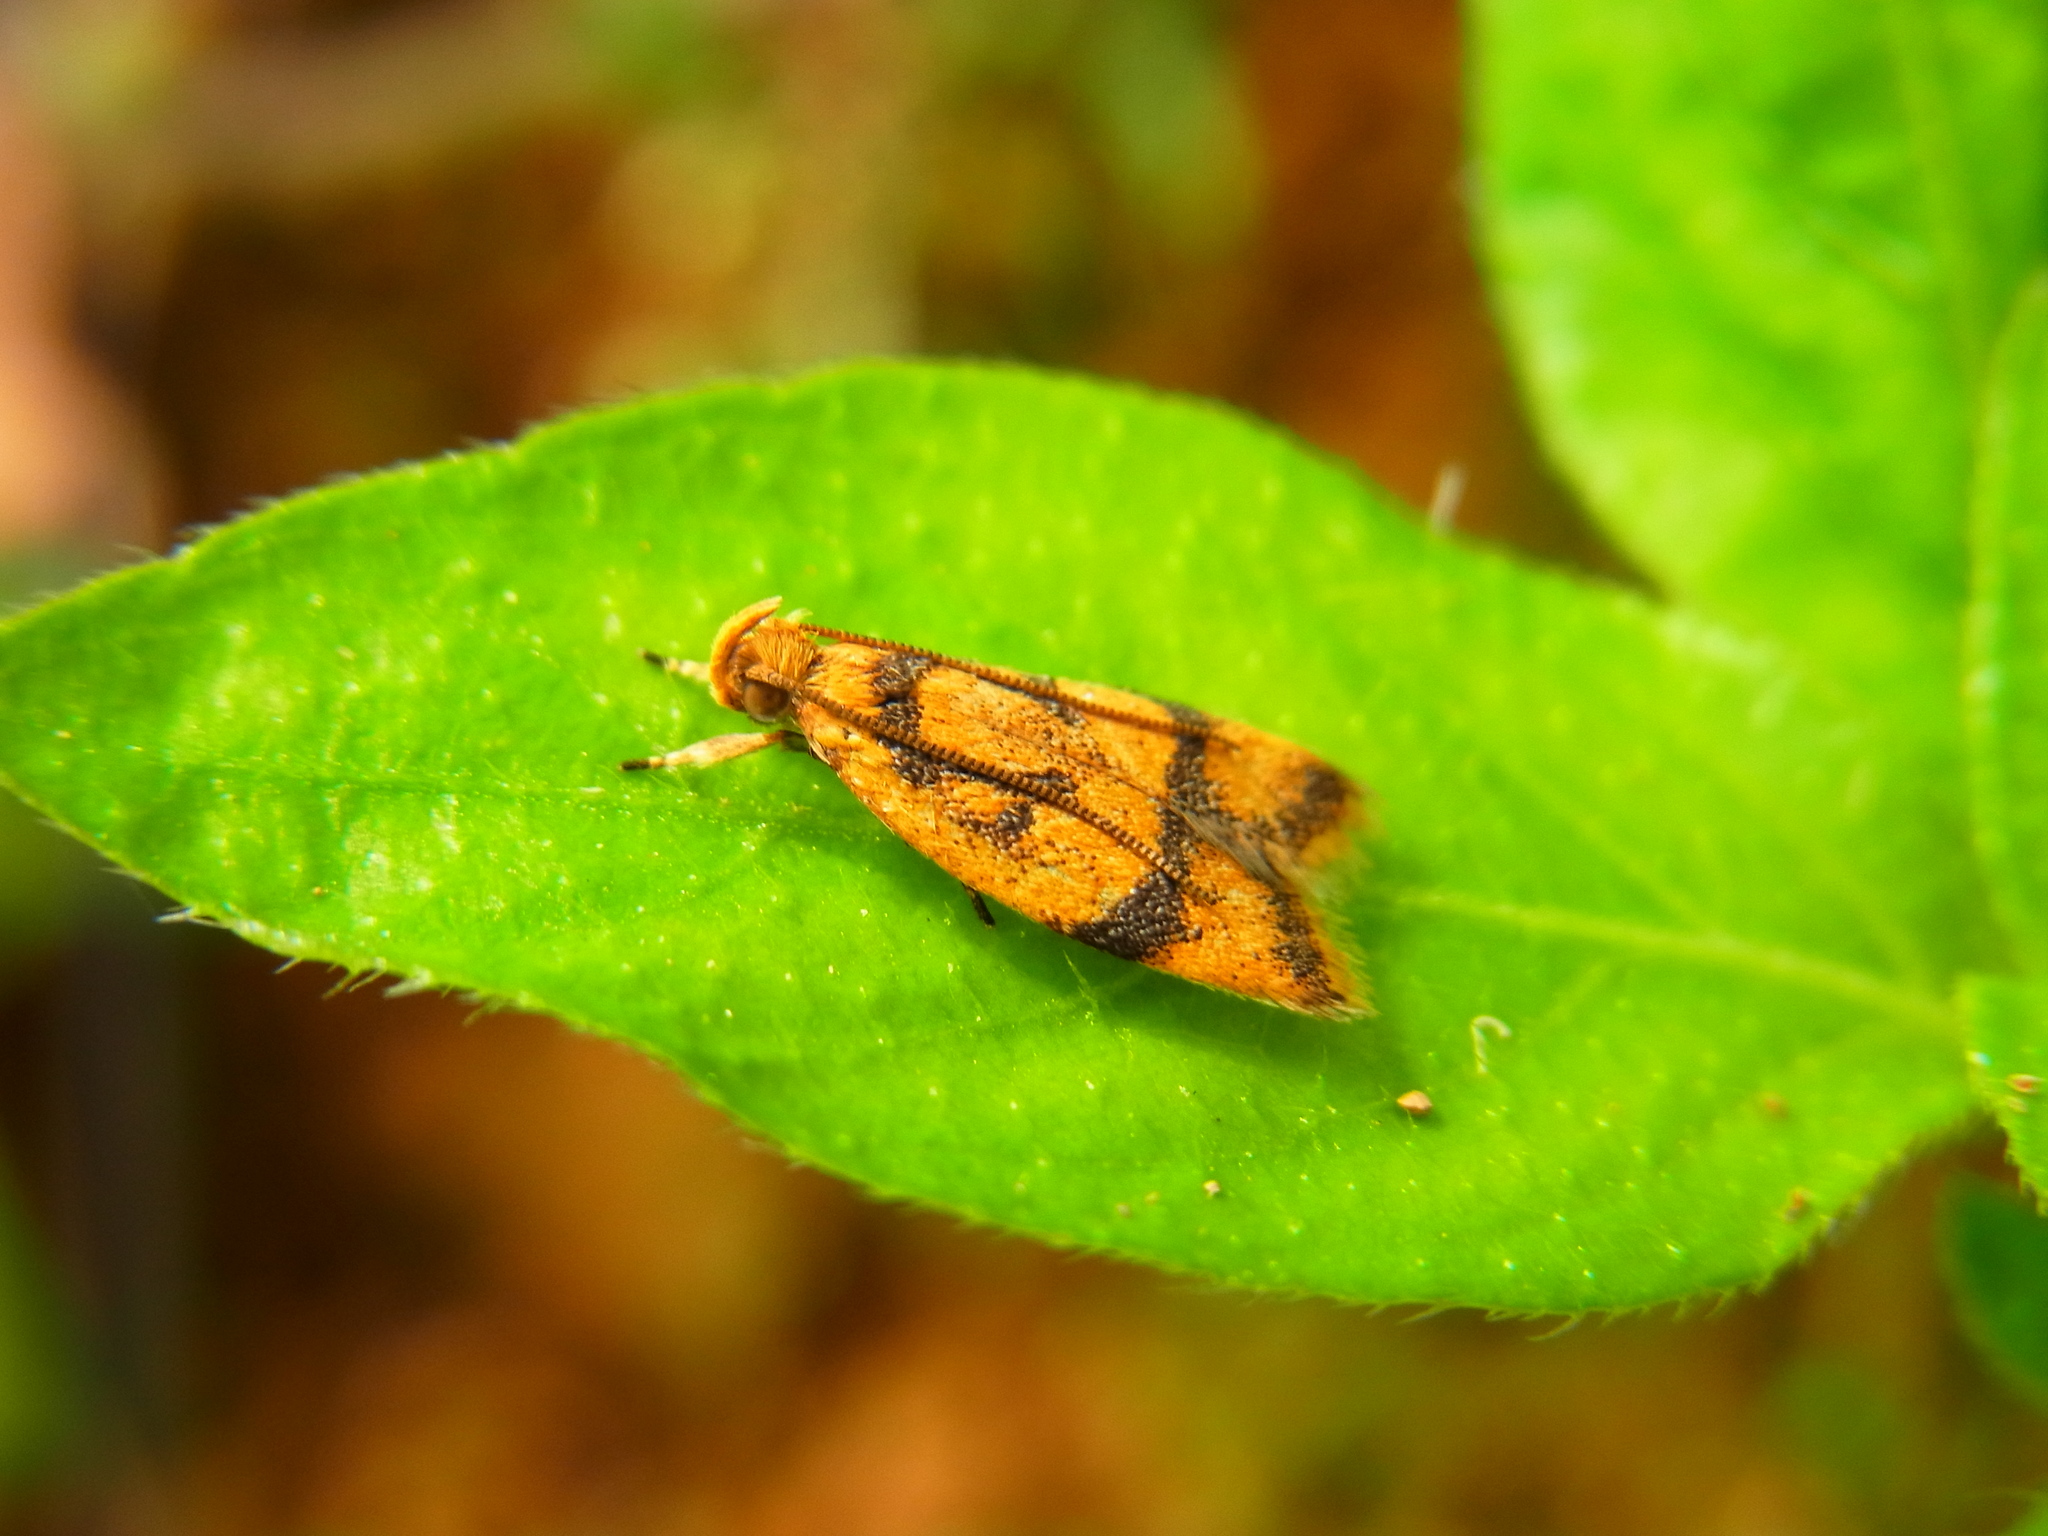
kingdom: Animalia
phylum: Arthropoda
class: Insecta
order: Lepidoptera
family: Autostichidae
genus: Periacma
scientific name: Periacma delegata
